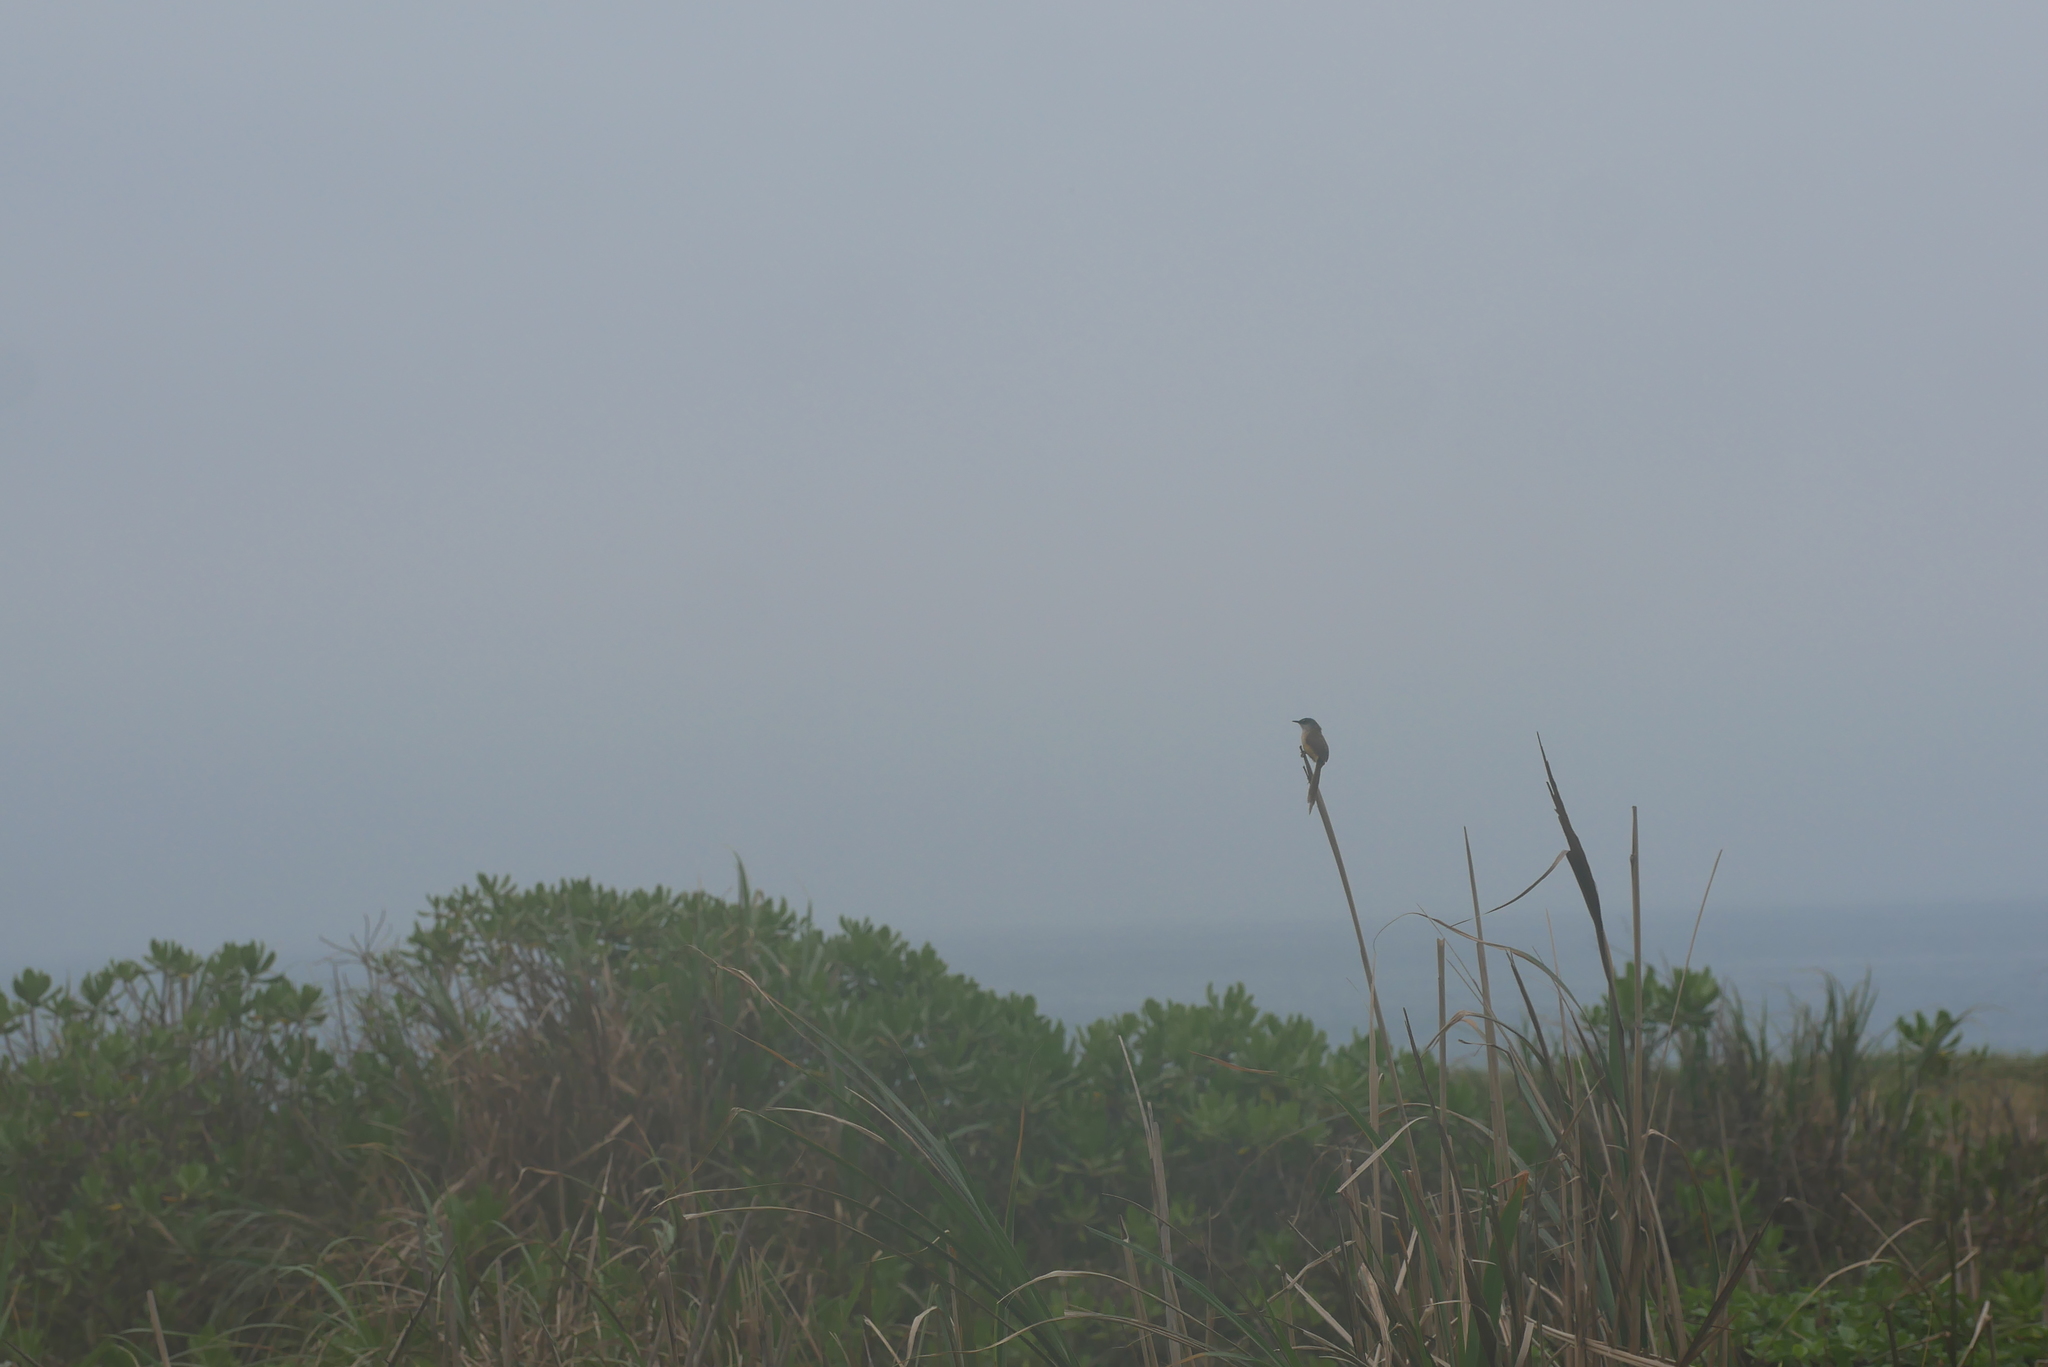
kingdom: Animalia
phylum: Chordata
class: Aves
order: Passeriformes
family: Cisticolidae
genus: Prinia
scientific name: Prinia flaviventris
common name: Yellow-bellied prinia
